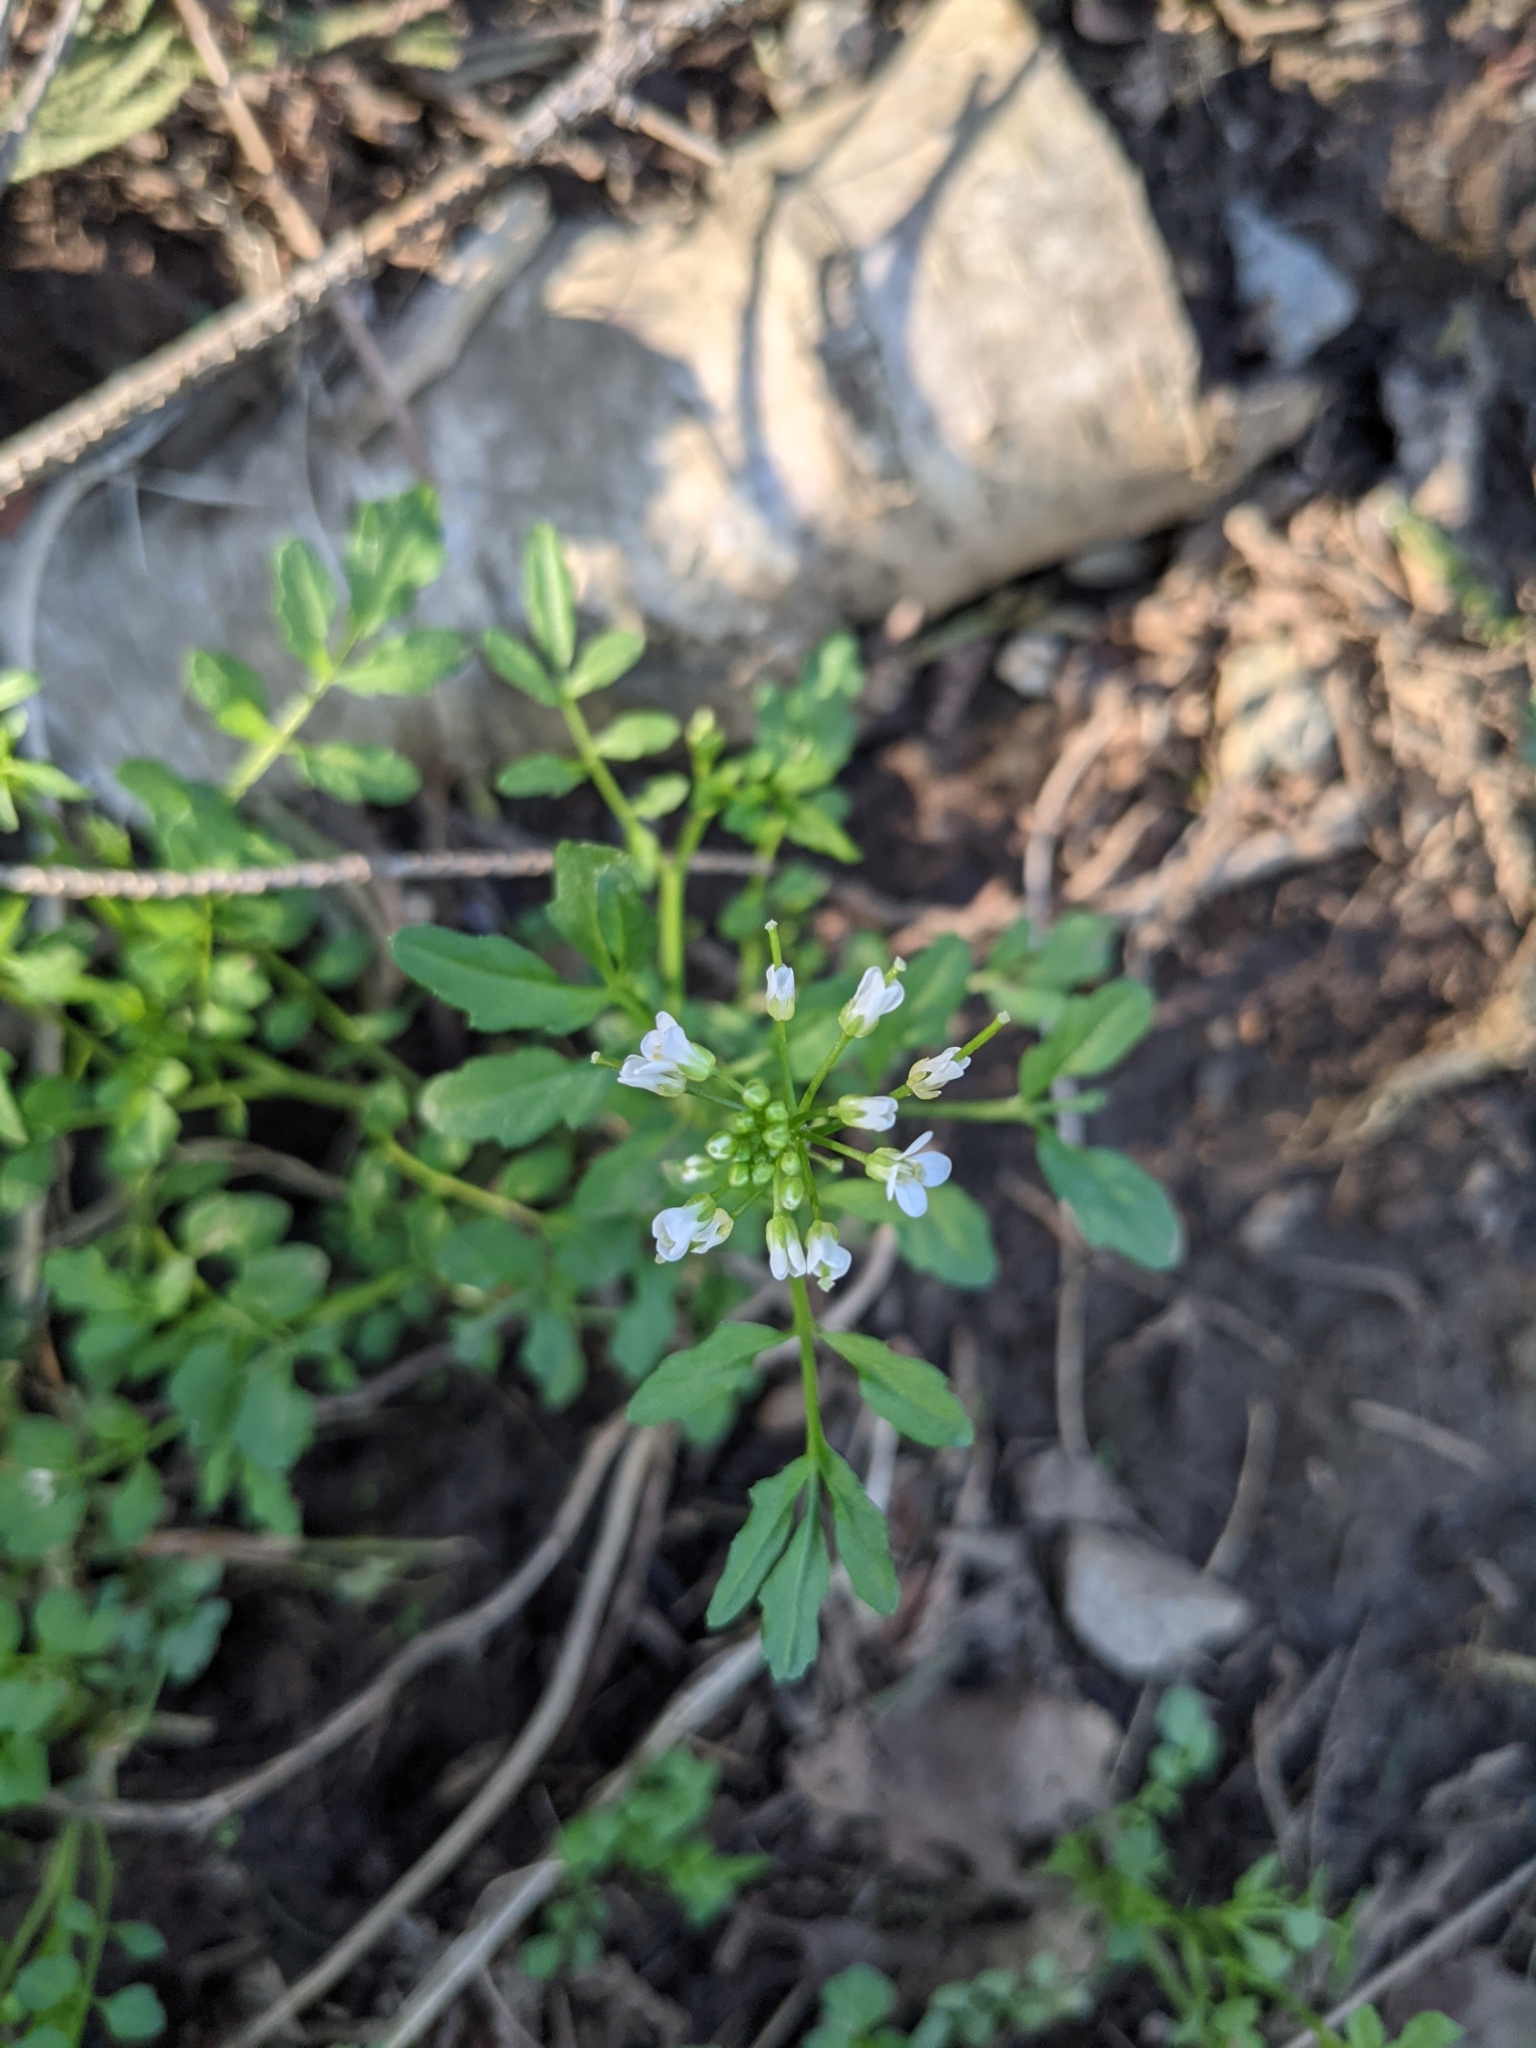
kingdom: Plantae
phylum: Tracheophyta
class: Magnoliopsida
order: Brassicales
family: Brassicaceae
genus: Cardamine
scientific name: Cardamine flexuosa
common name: Woodland bittercress
